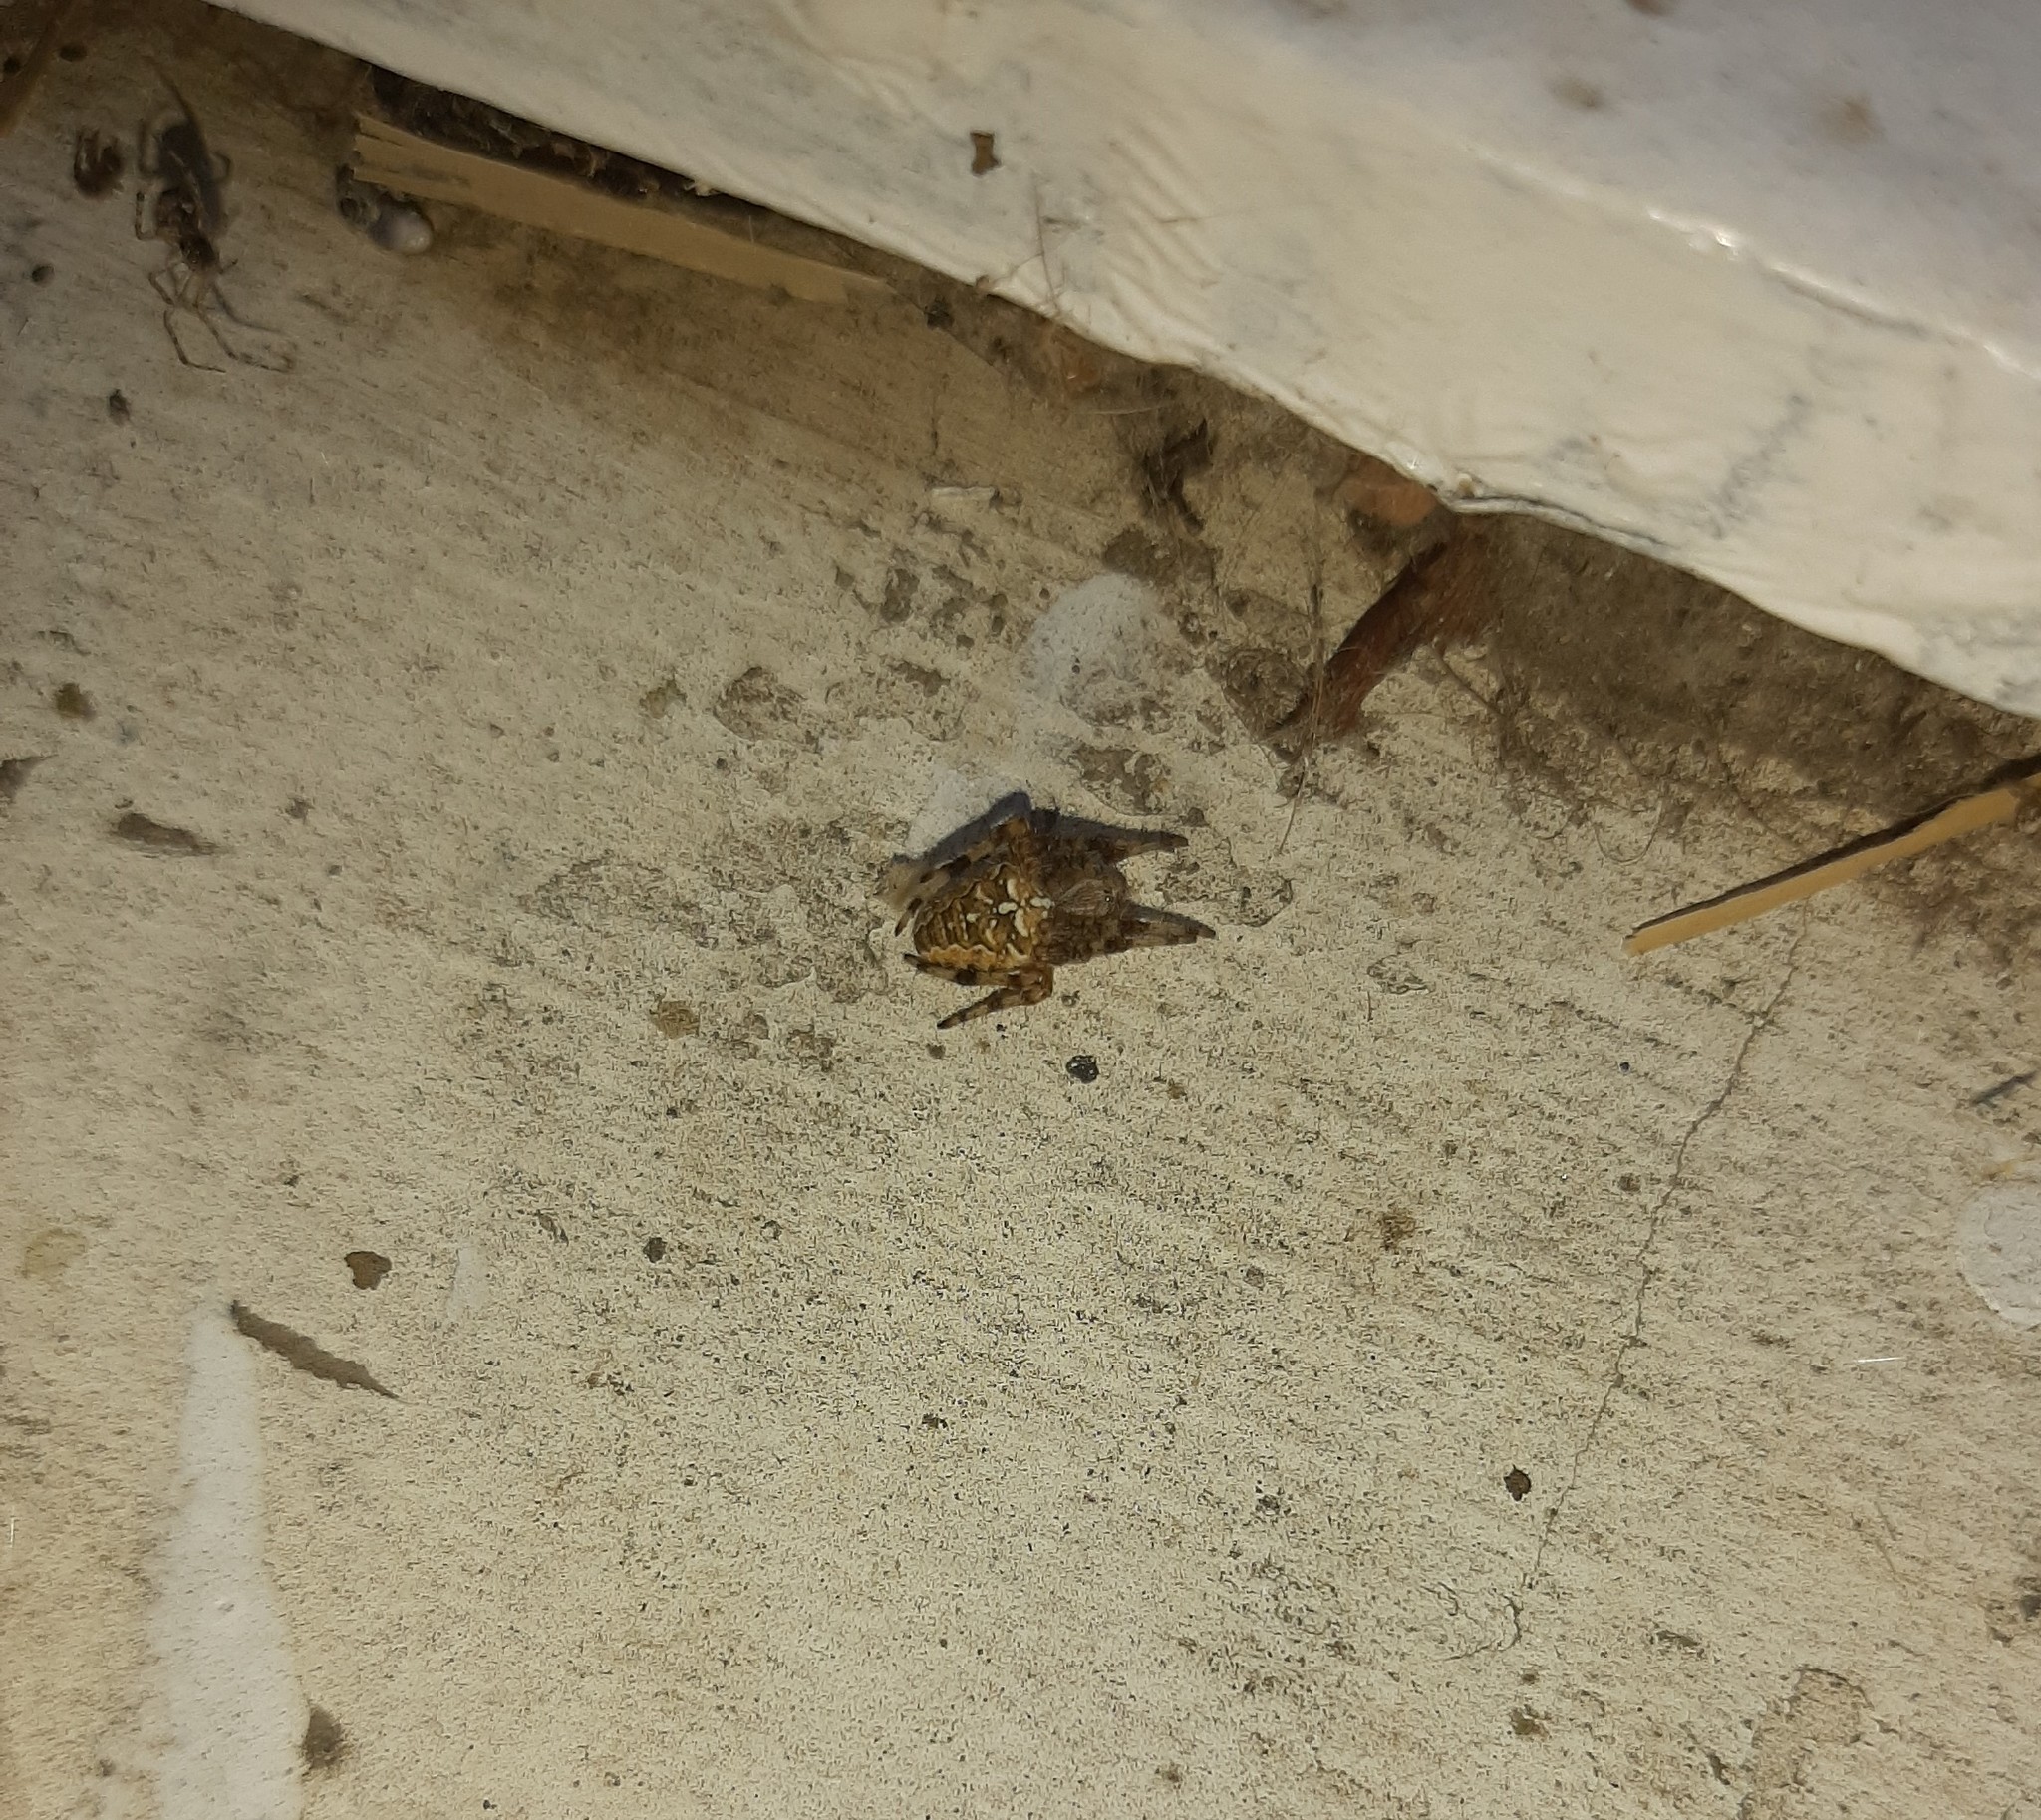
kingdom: Animalia
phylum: Arthropoda
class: Arachnida
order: Araneae
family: Araneidae
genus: Araneus
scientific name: Araneus diadematus
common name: Cross orbweaver
